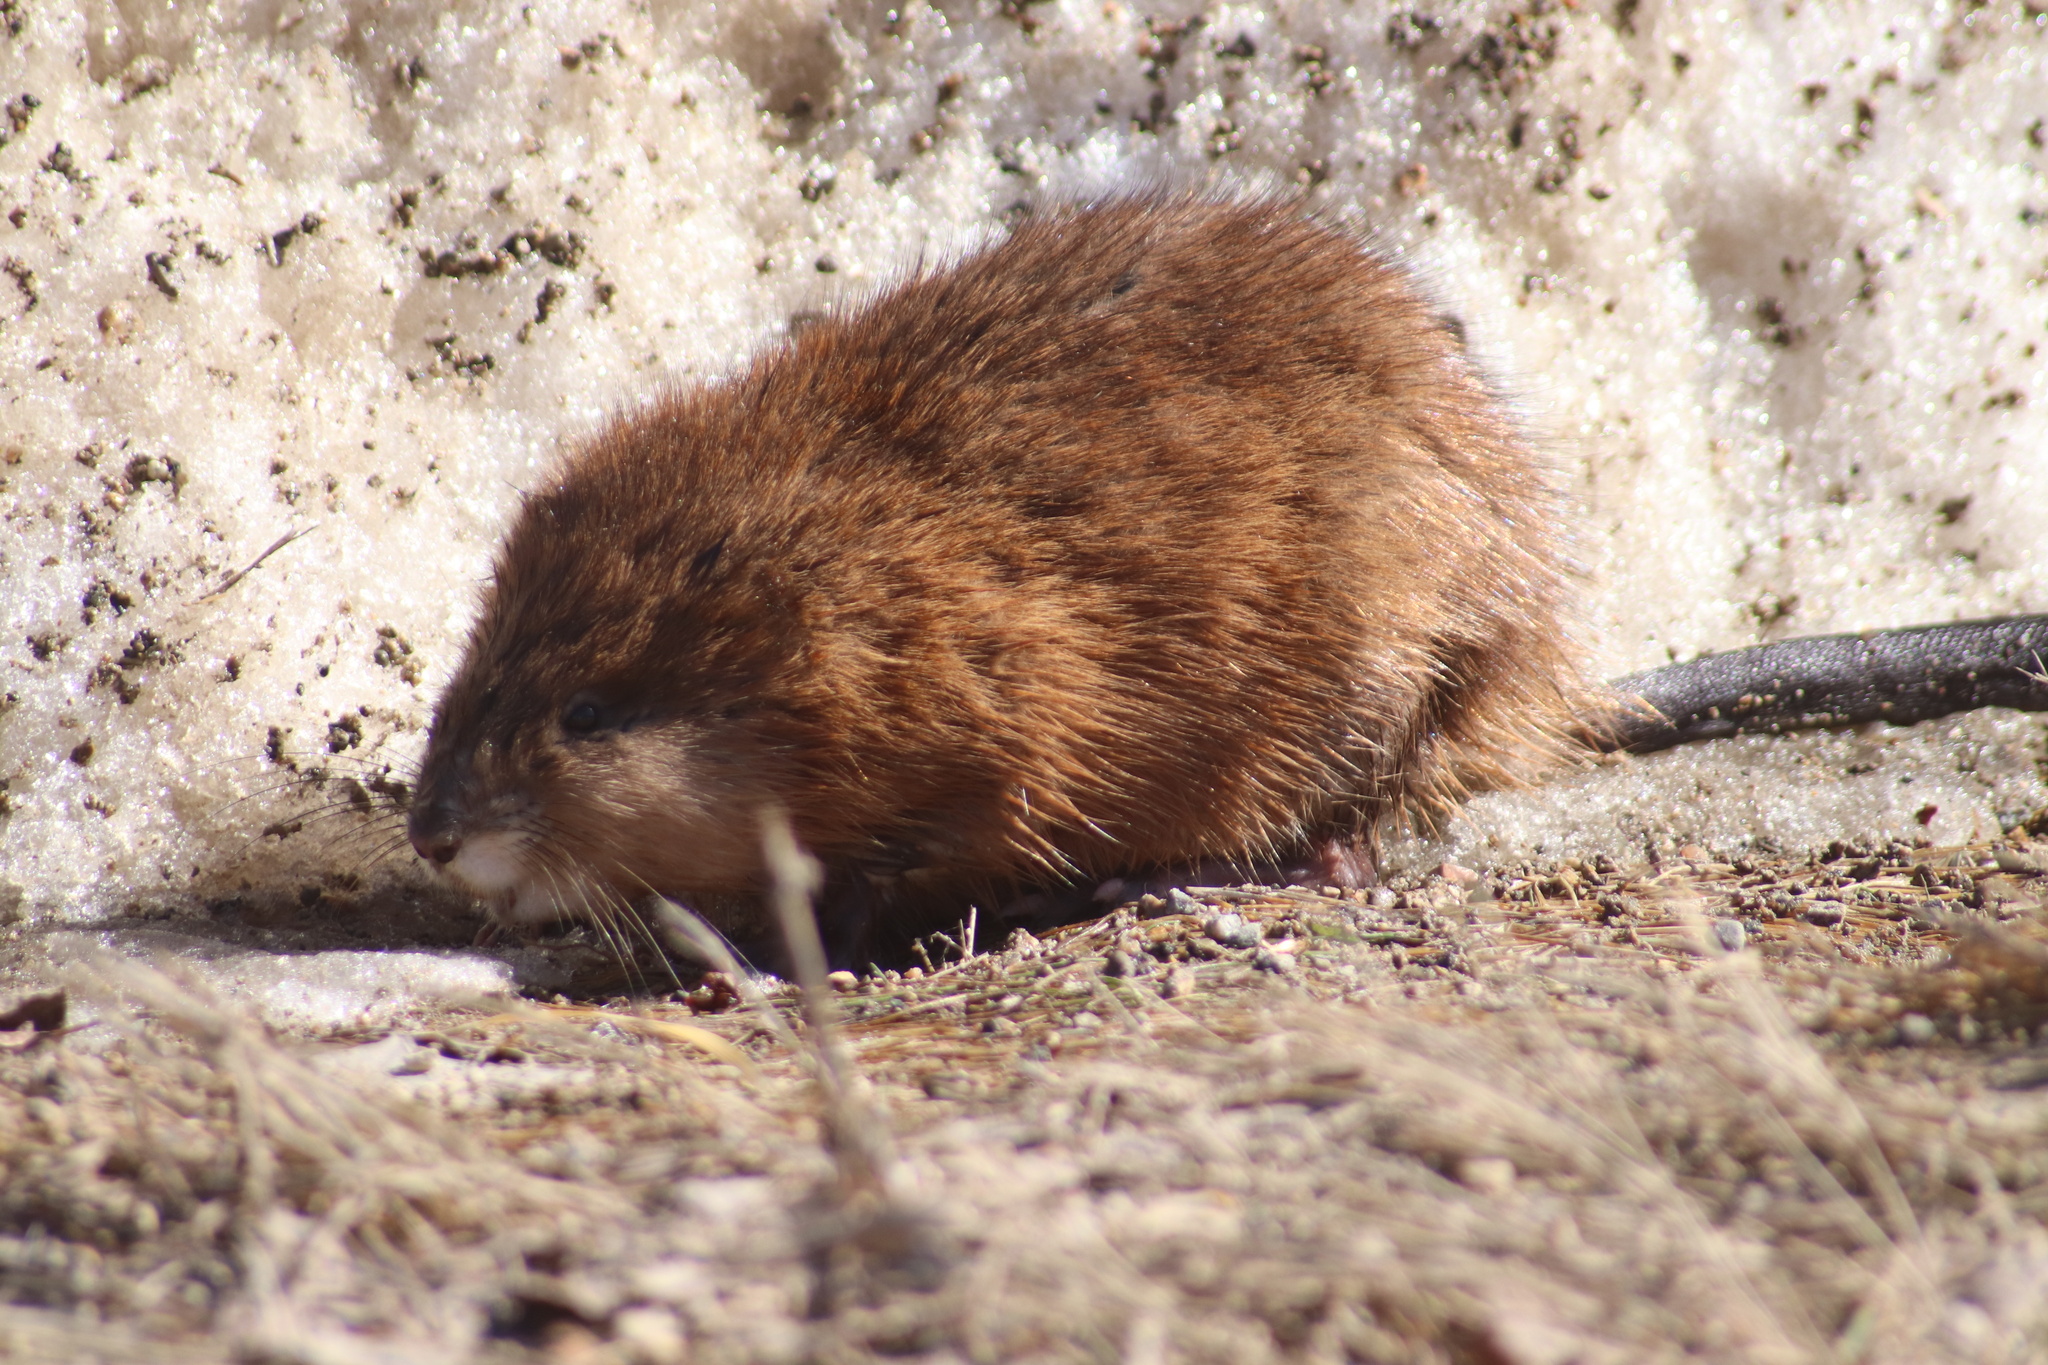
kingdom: Animalia
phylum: Chordata
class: Mammalia
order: Rodentia
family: Cricetidae
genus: Ondatra
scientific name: Ondatra zibethicus
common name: Muskrat
